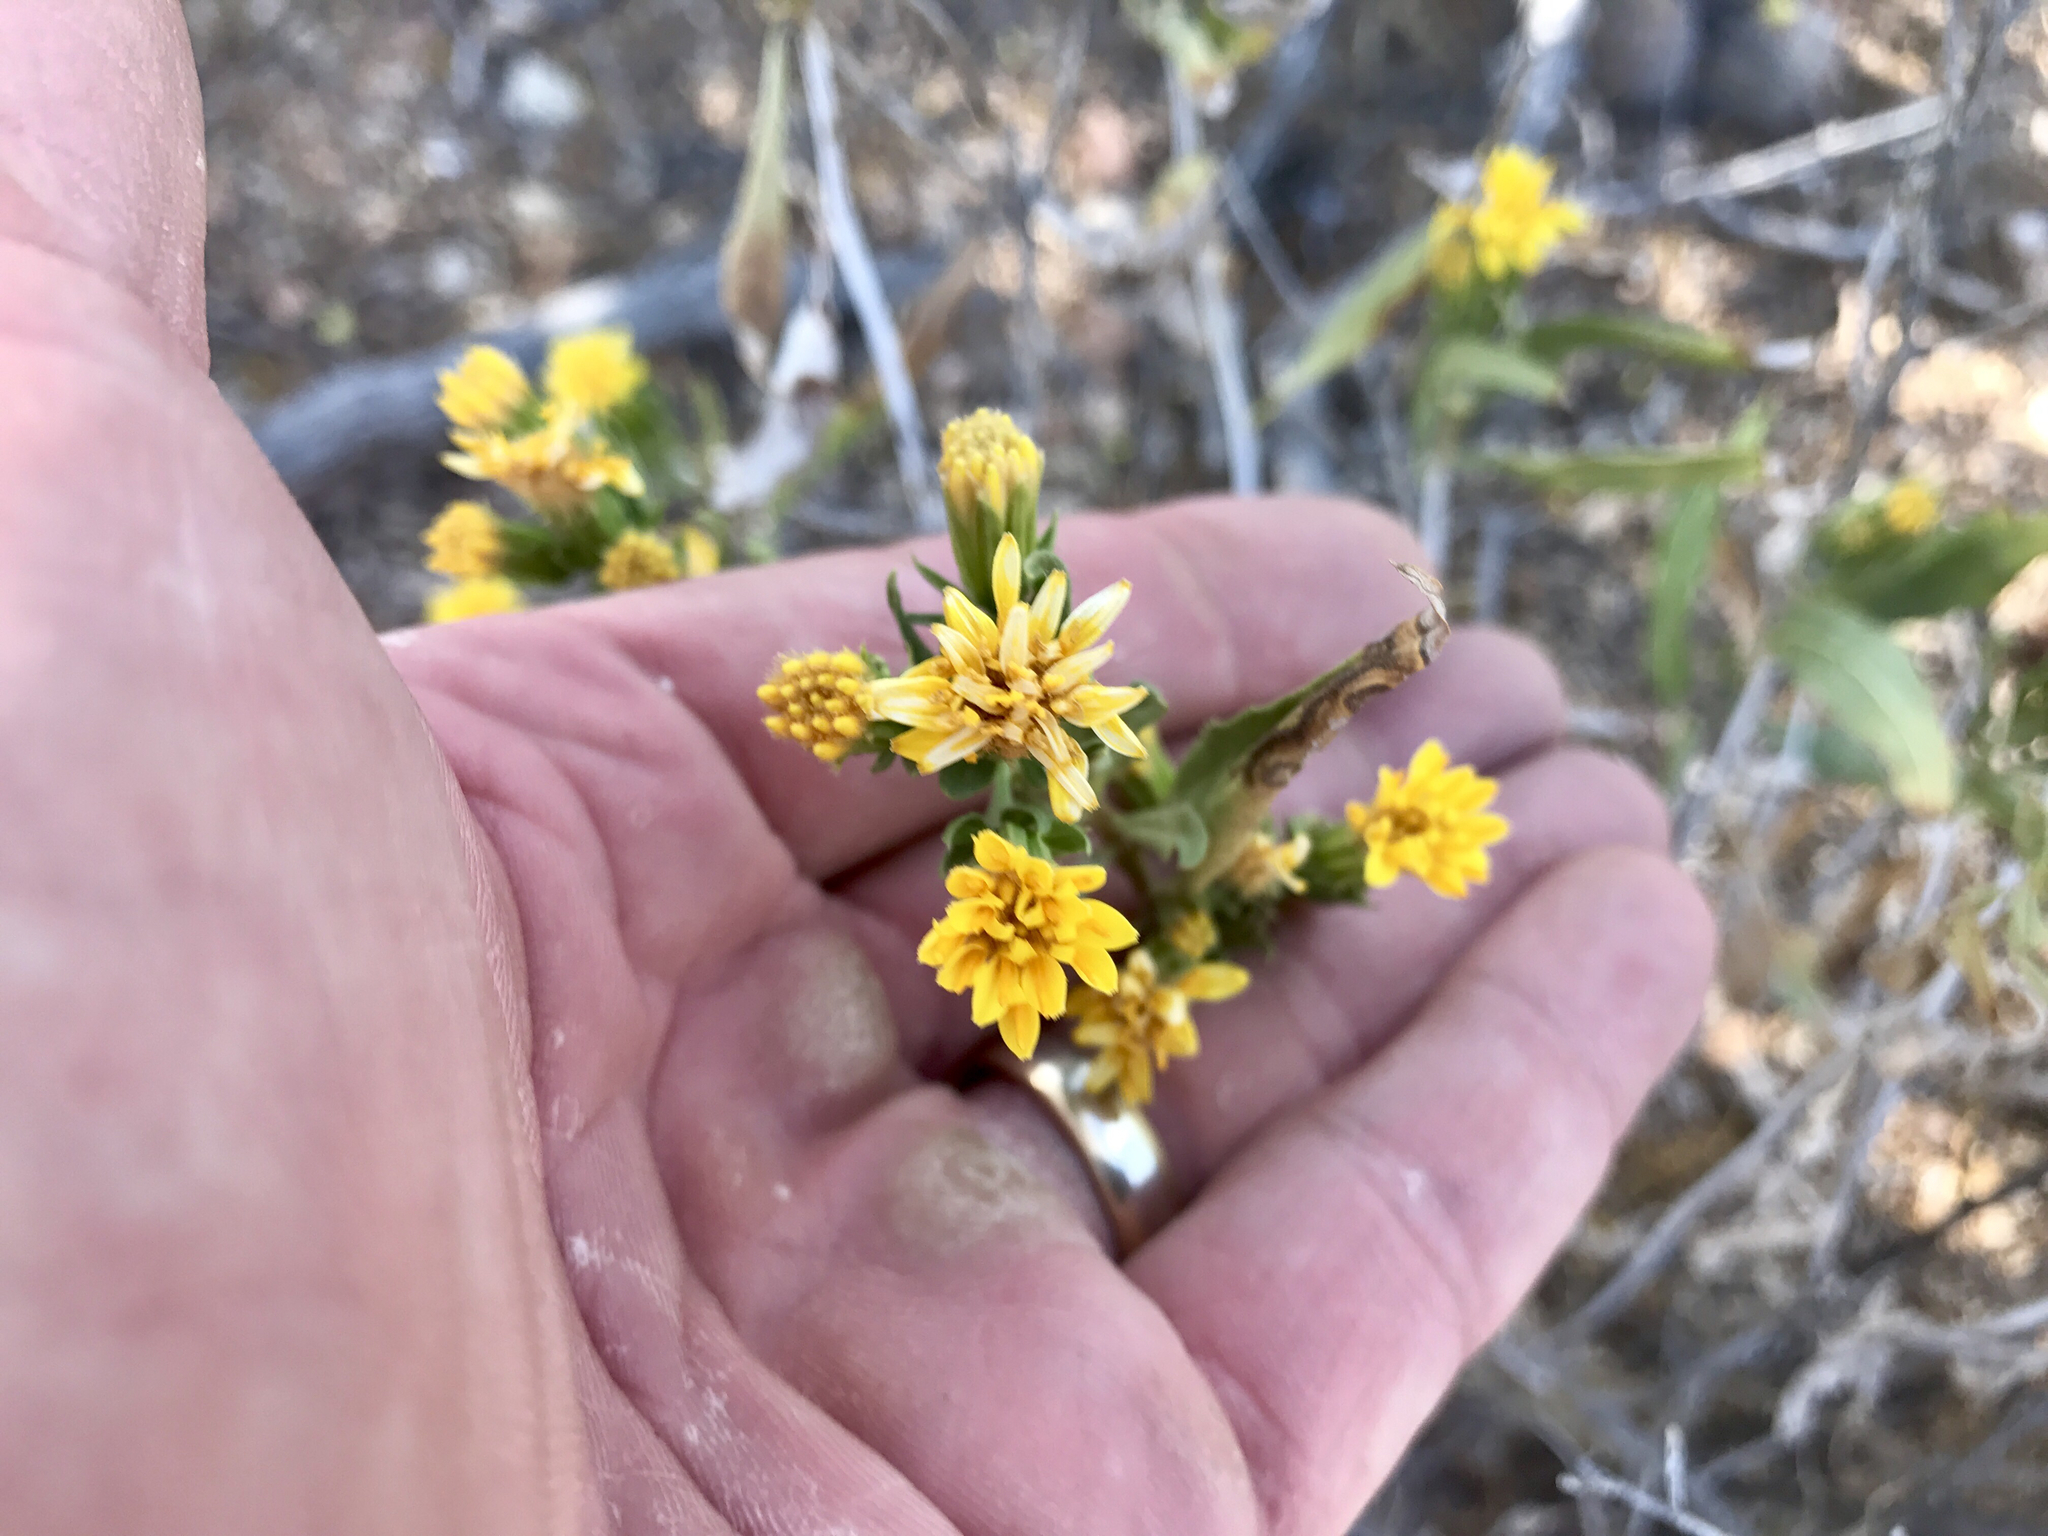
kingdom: Plantae
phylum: Tracheophyta
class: Magnoliopsida
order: Asterales
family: Asteraceae
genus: Trixis
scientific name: Trixis californica
